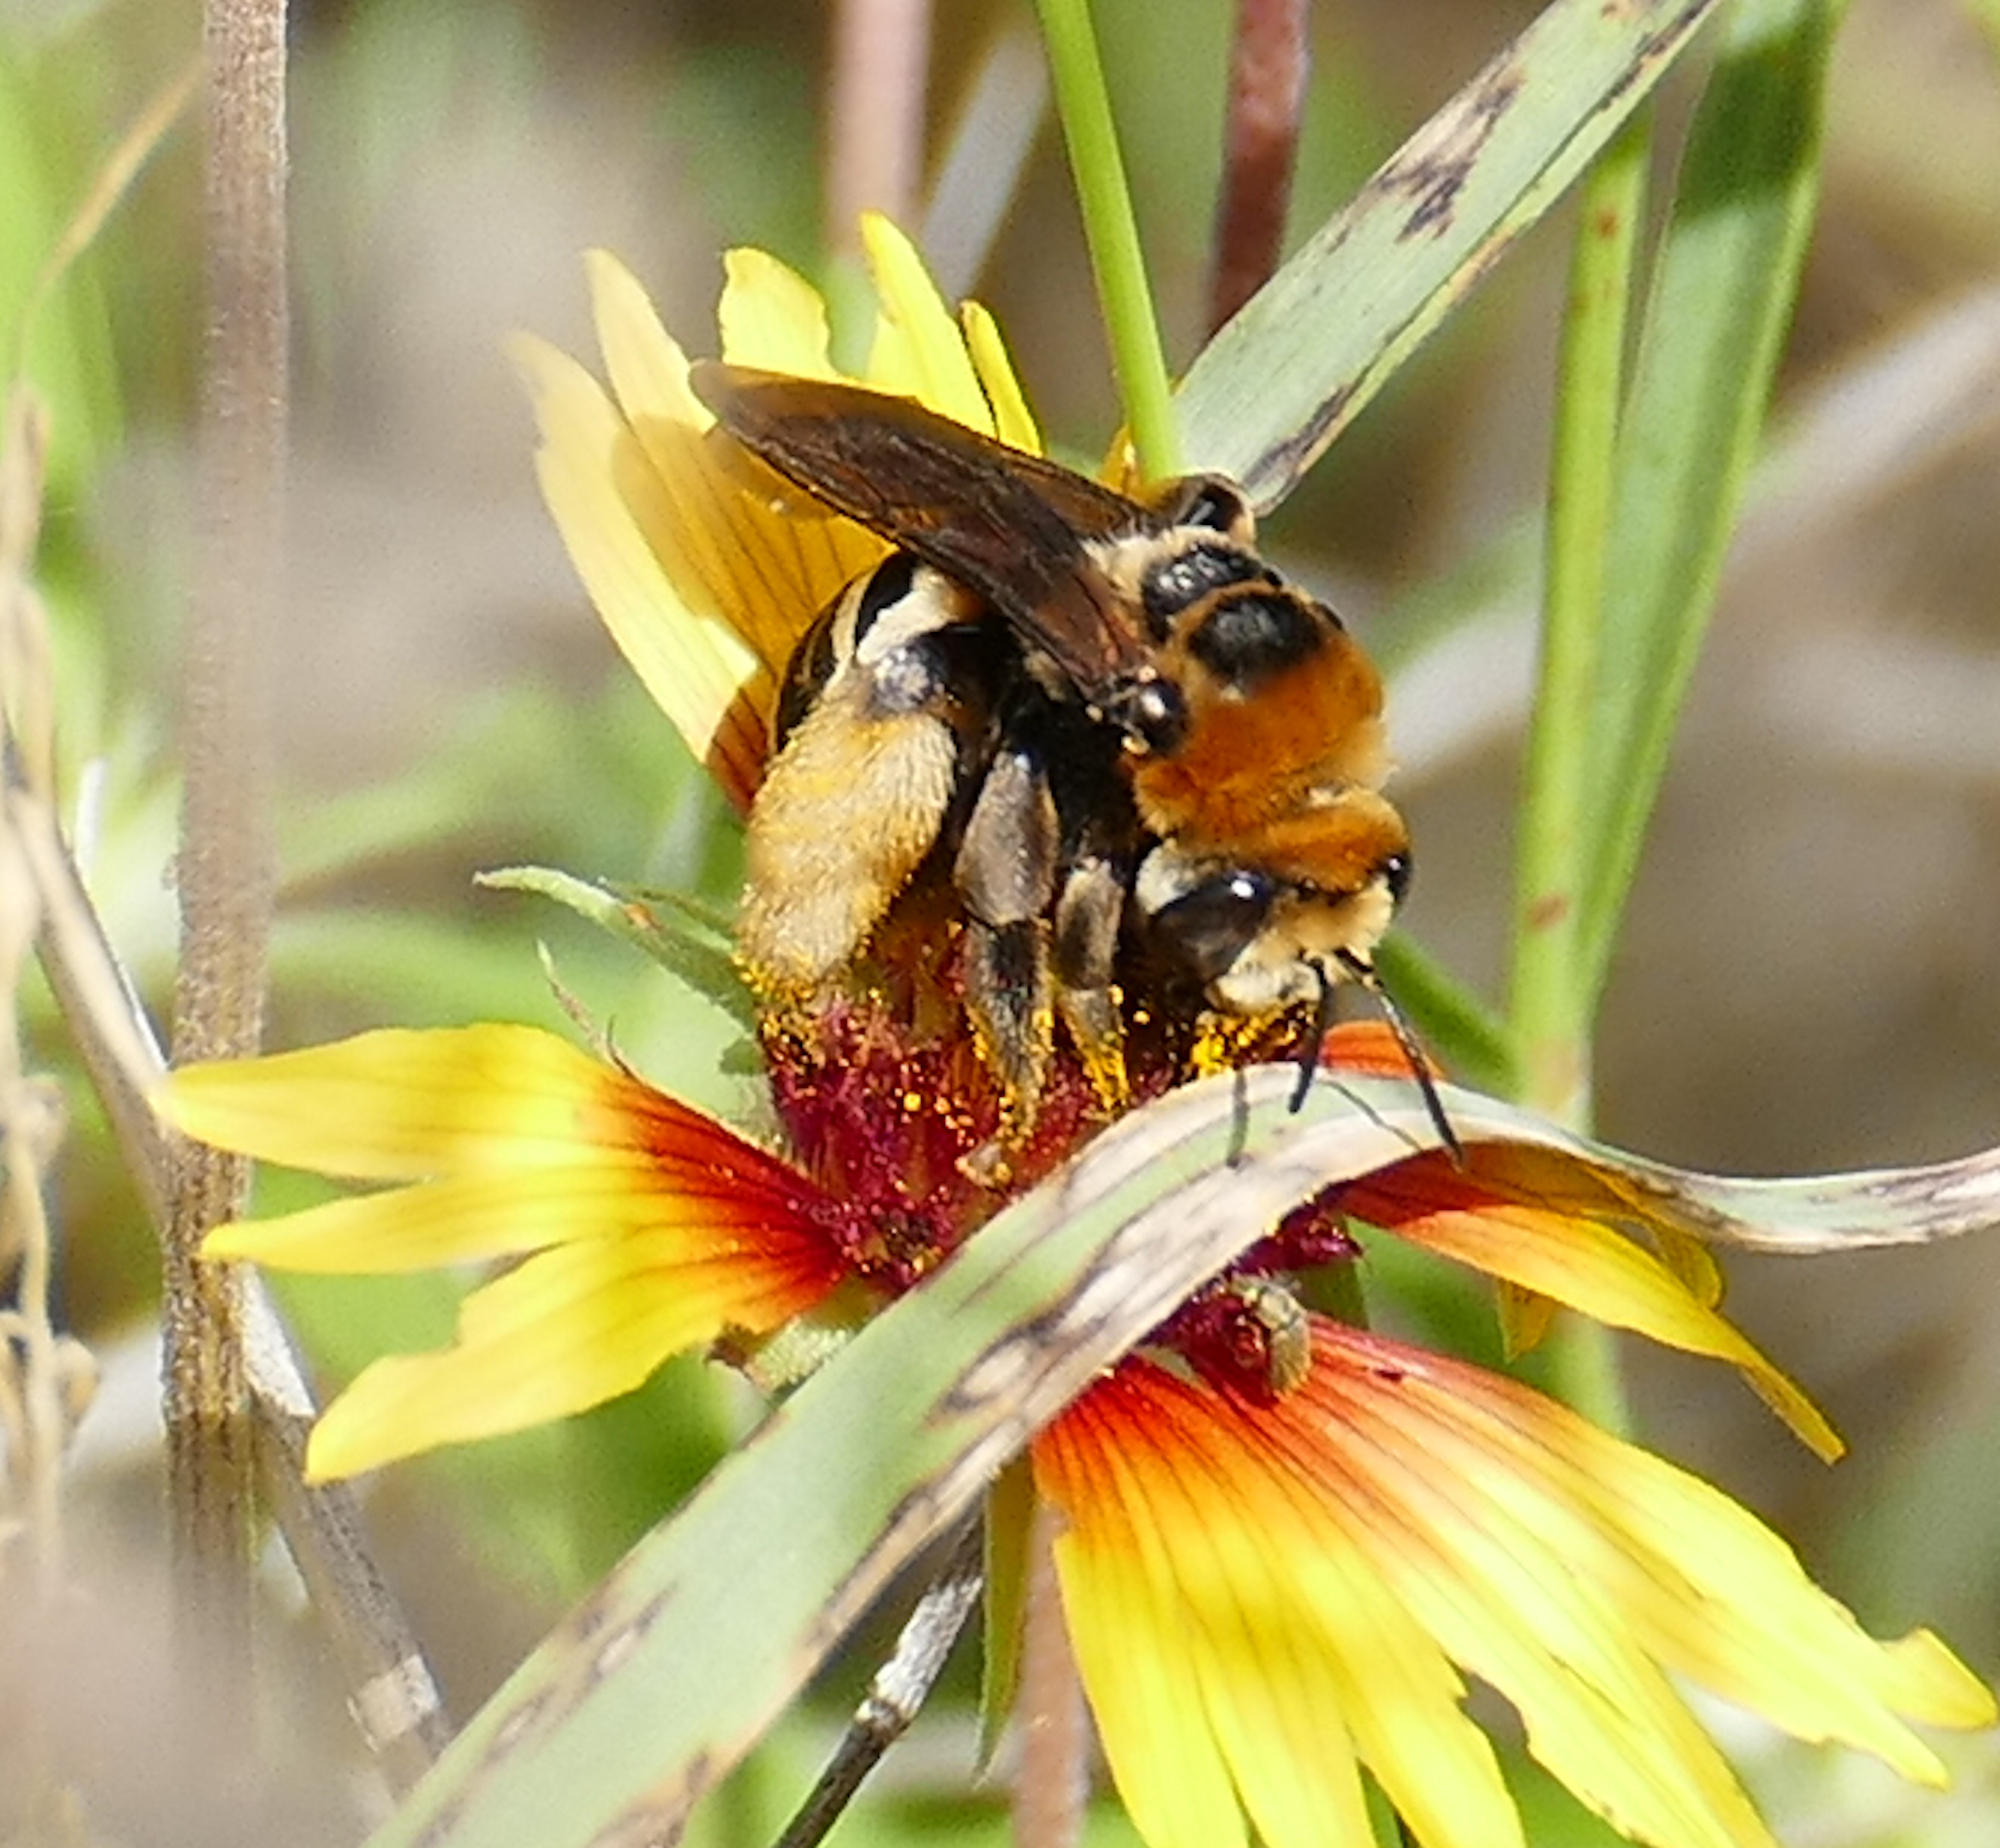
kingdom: Animalia
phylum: Arthropoda
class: Insecta
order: Hymenoptera
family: Apidae
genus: Svastra
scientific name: Svastra obliqua
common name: Oblique longhorn
